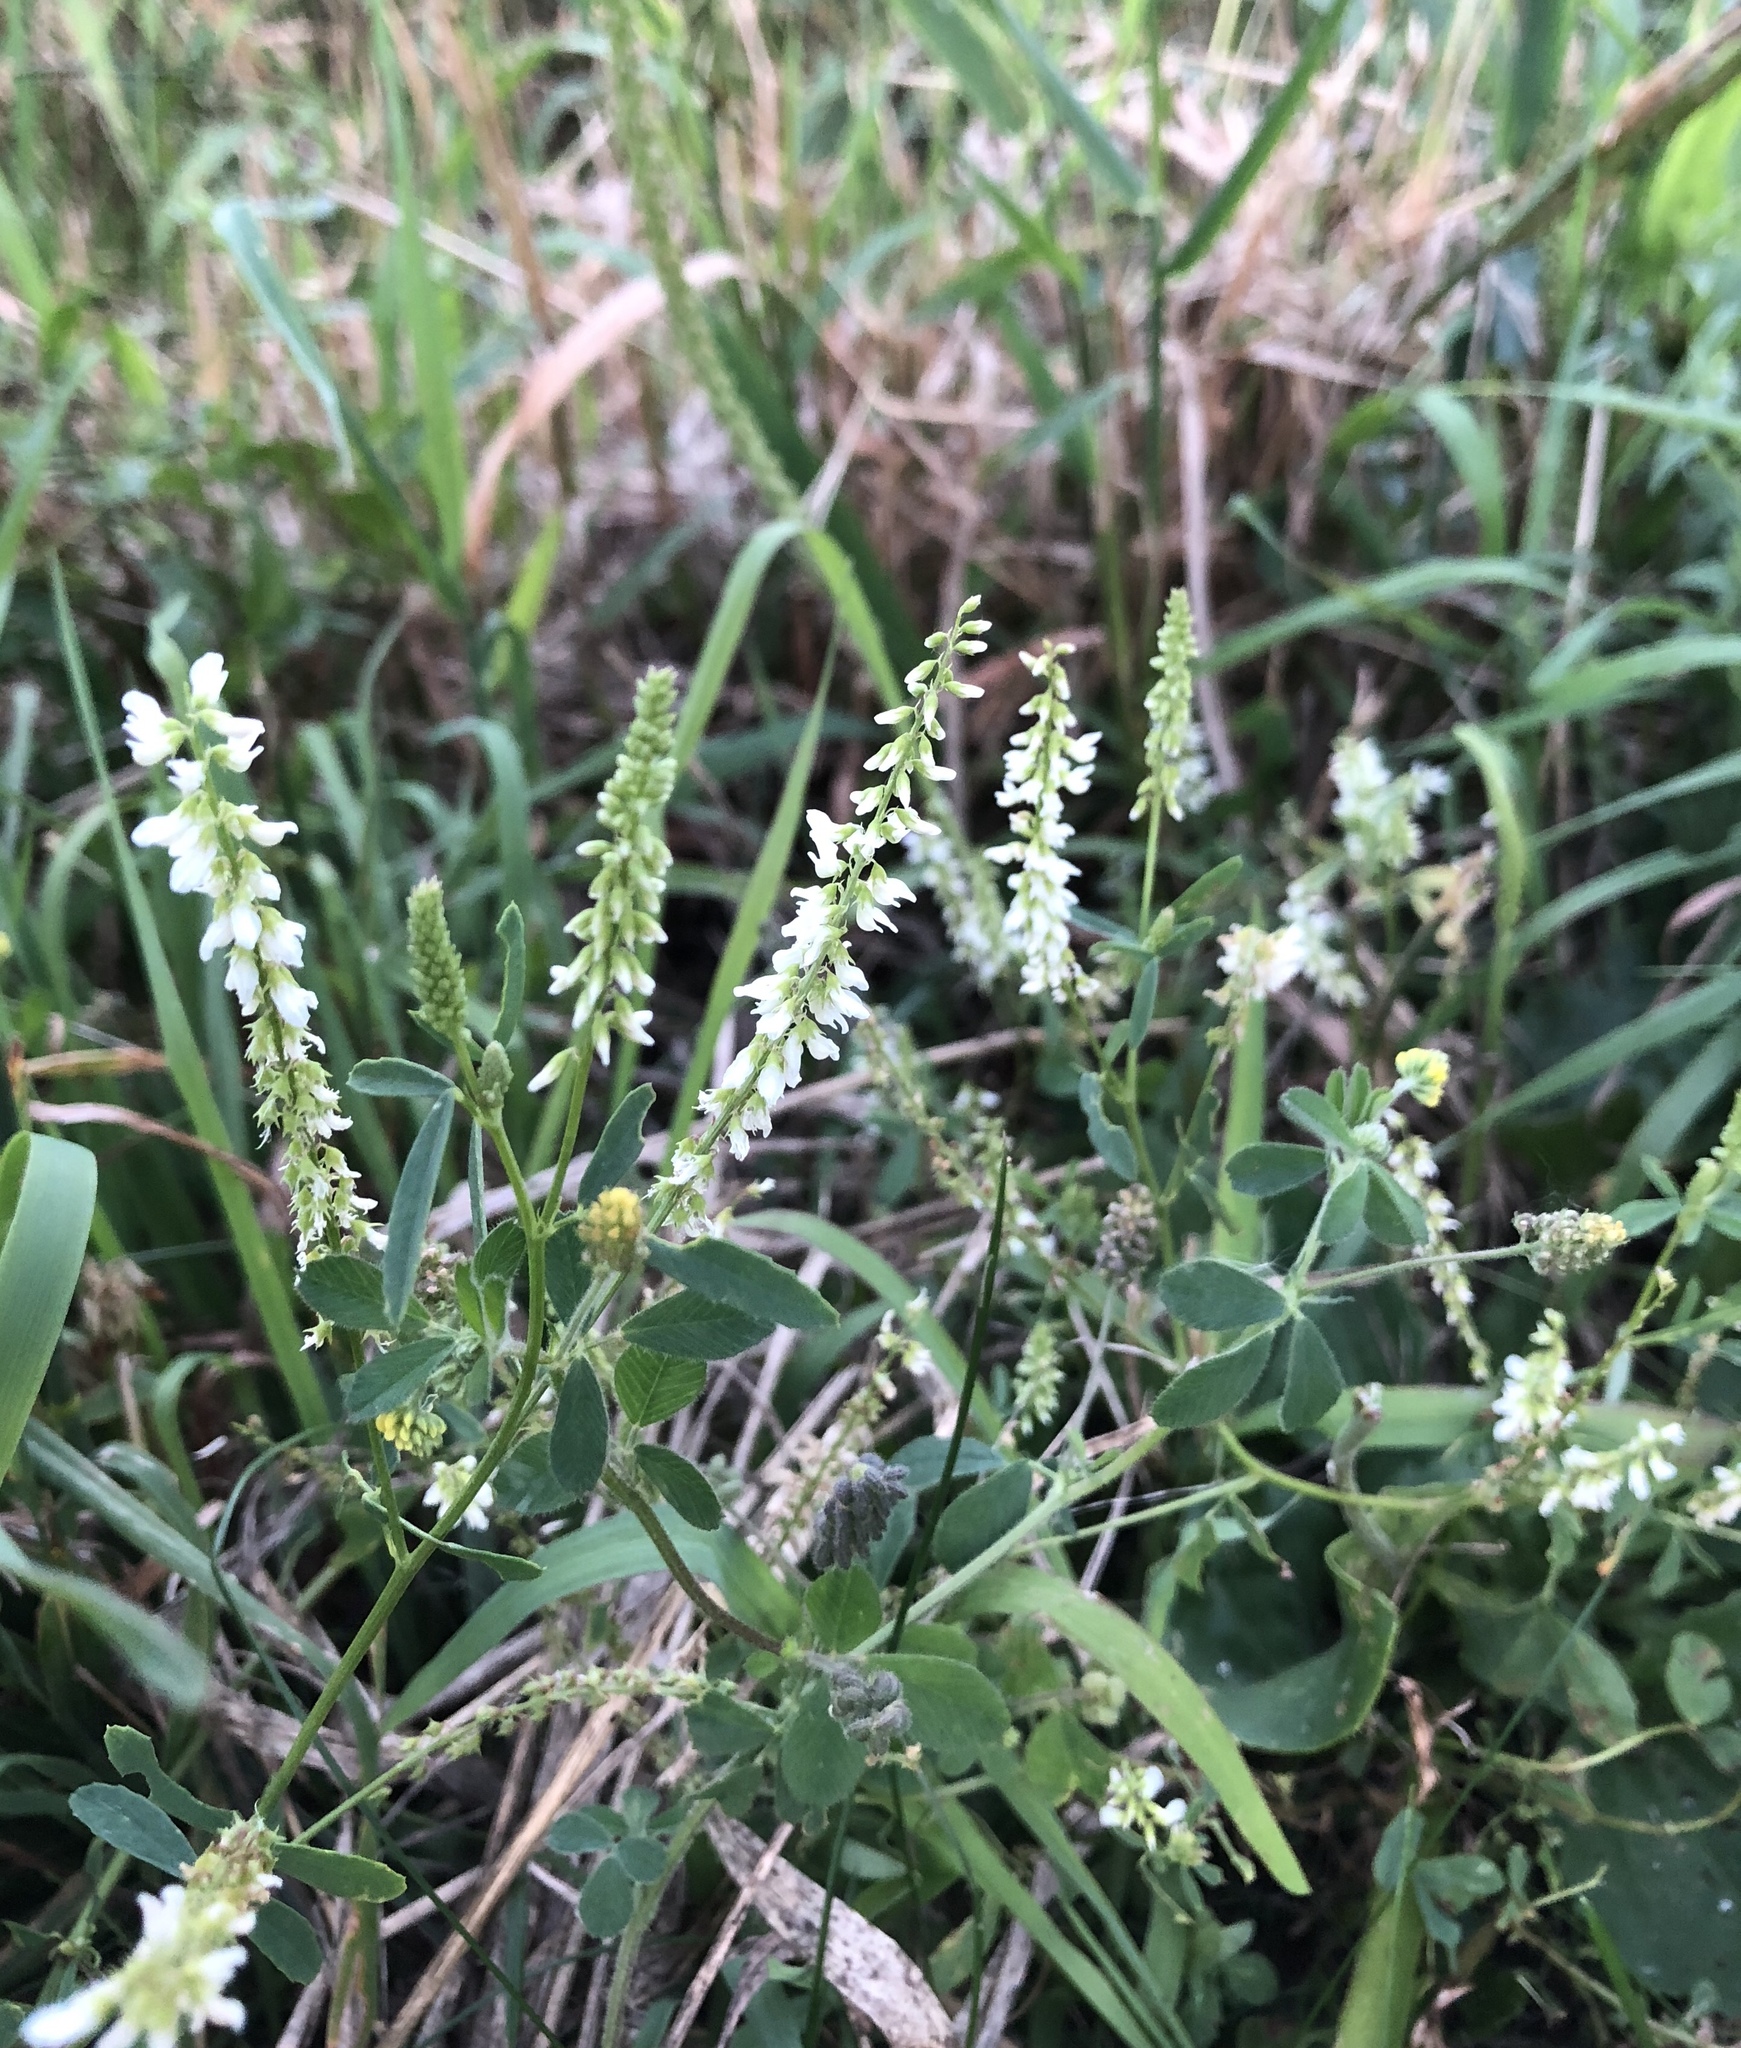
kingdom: Plantae
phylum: Tracheophyta
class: Magnoliopsida
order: Fabales
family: Fabaceae
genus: Melilotus
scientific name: Melilotus albus
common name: White melilot
